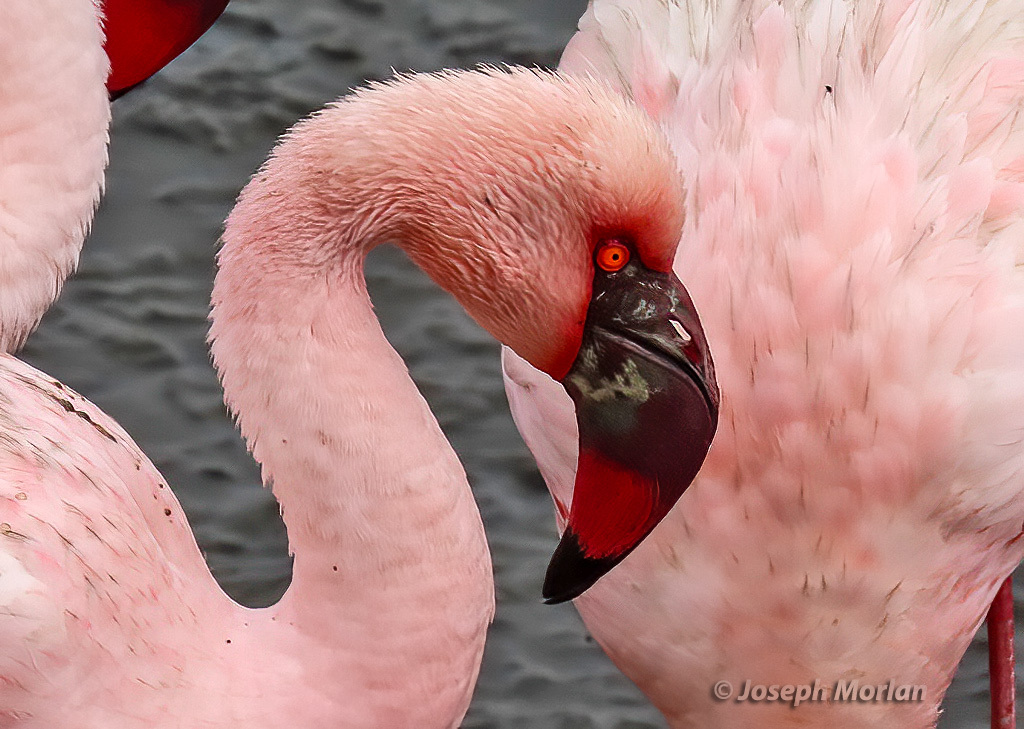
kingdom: Animalia
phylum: Chordata
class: Aves
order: Phoenicopteriformes
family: Phoenicopteridae
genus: Phoeniconaias
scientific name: Phoeniconaias minor
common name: Lesser flamingo
